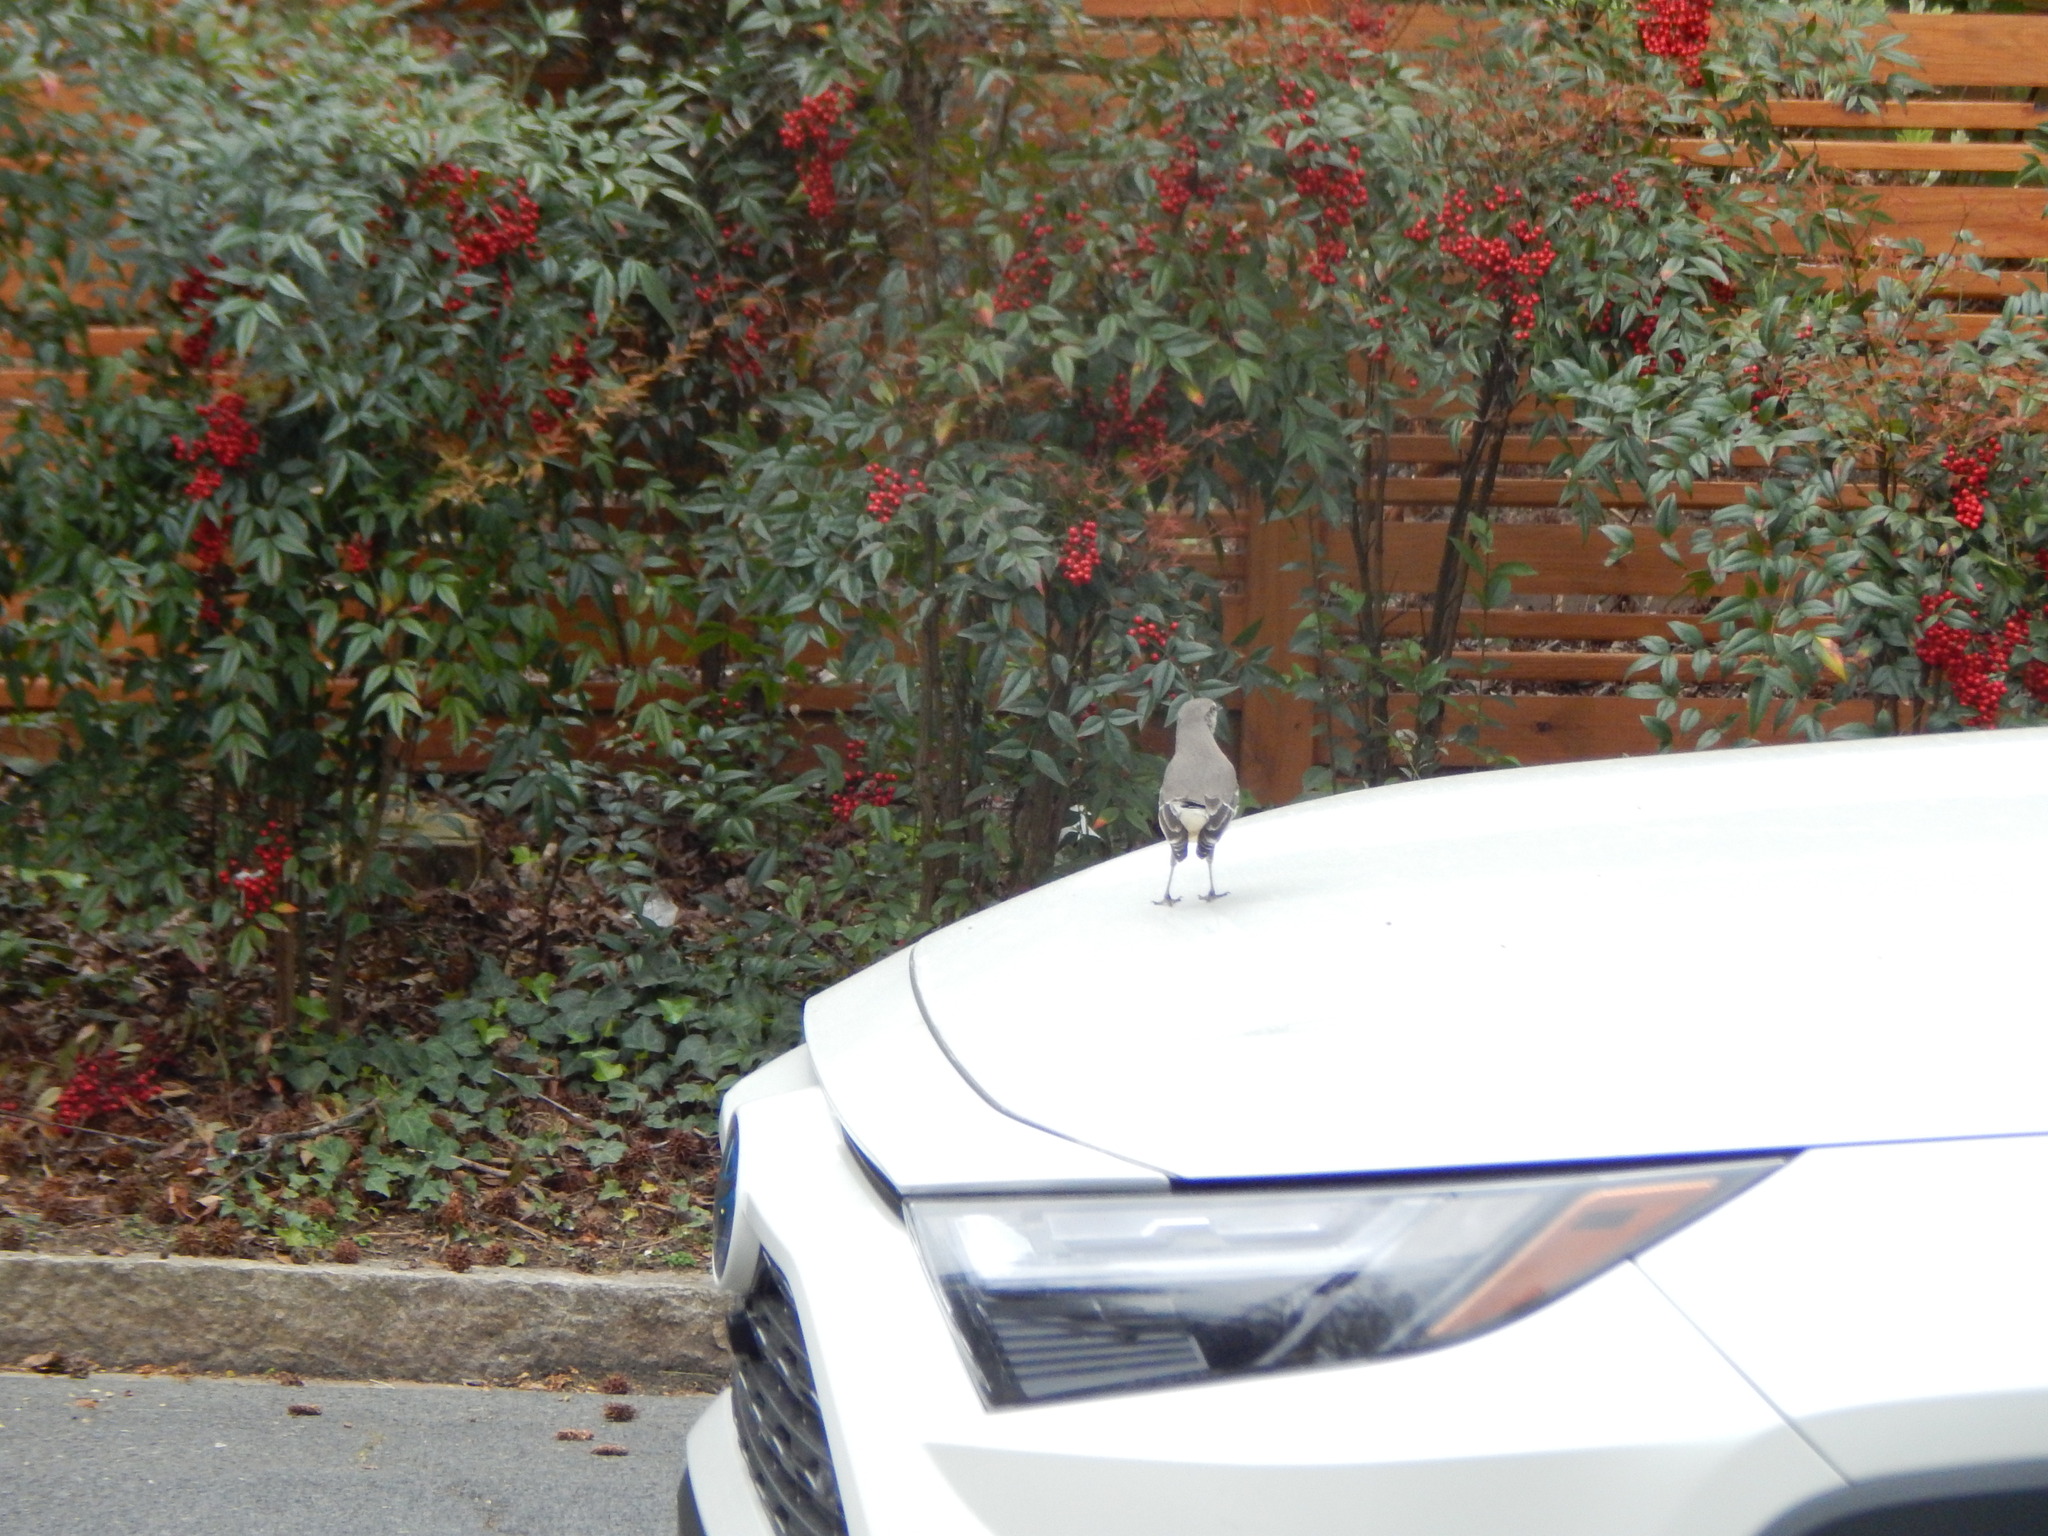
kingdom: Animalia
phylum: Chordata
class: Aves
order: Passeriformes
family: Mimidae
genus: Mimus
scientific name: Mimus polyglottos
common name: Northern mockingbird
